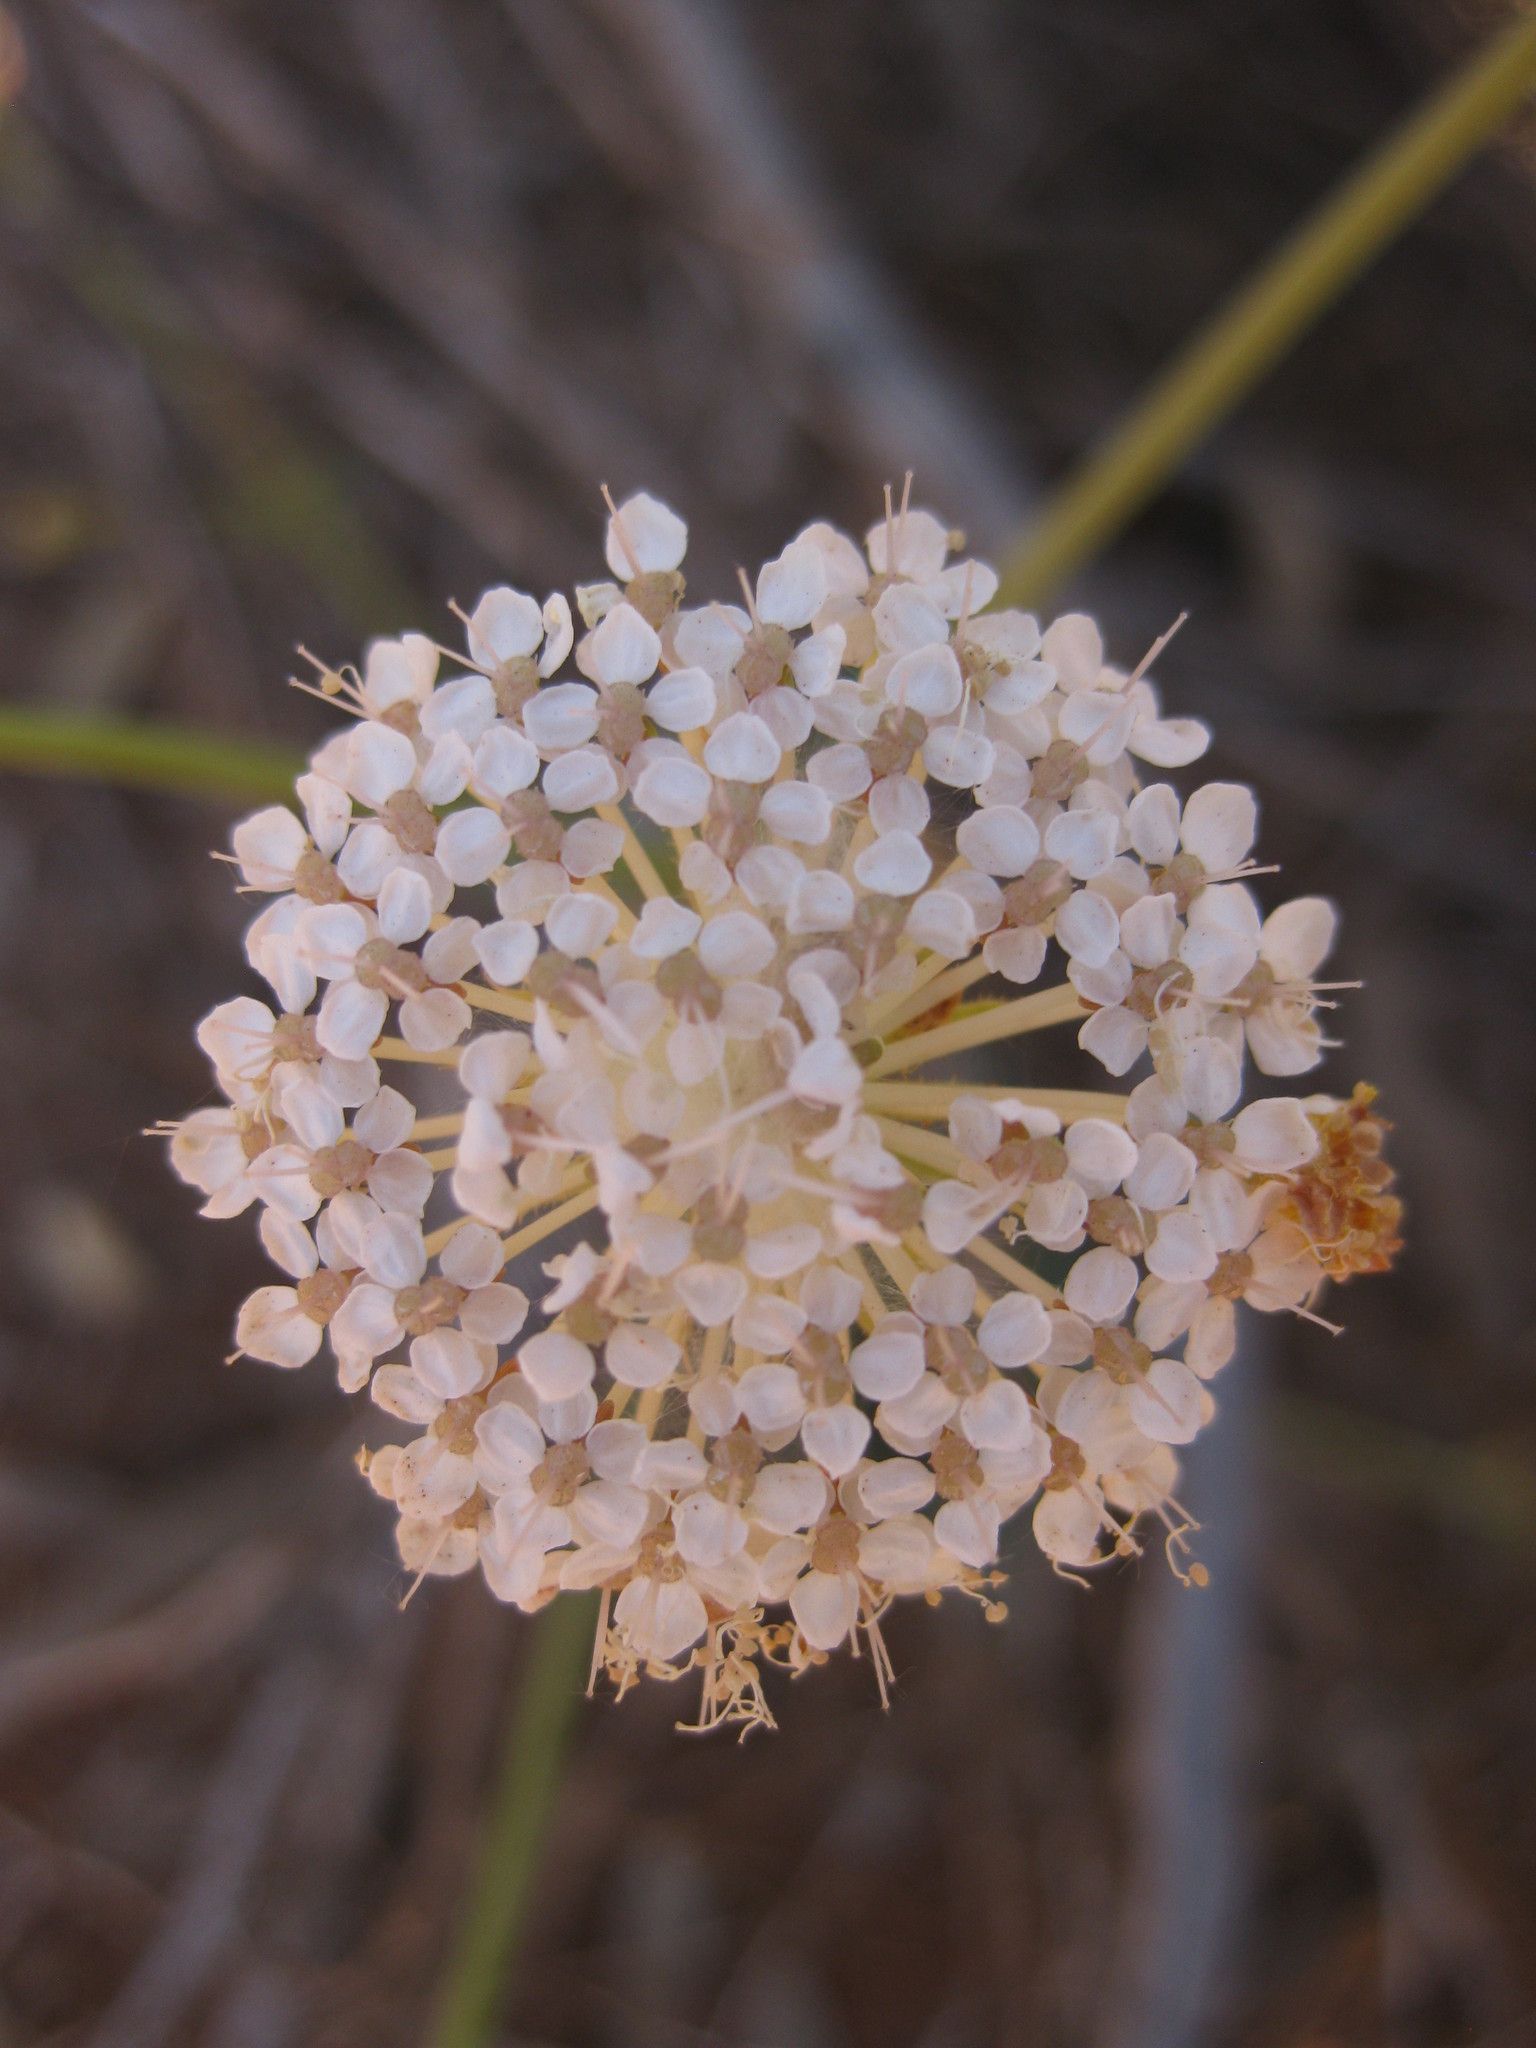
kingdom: Plantae
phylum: Tracheophyta
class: Magnoliopsida
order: Apiales
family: Araliaceae
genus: Trachymene
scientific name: Trachymene glaucifolia
